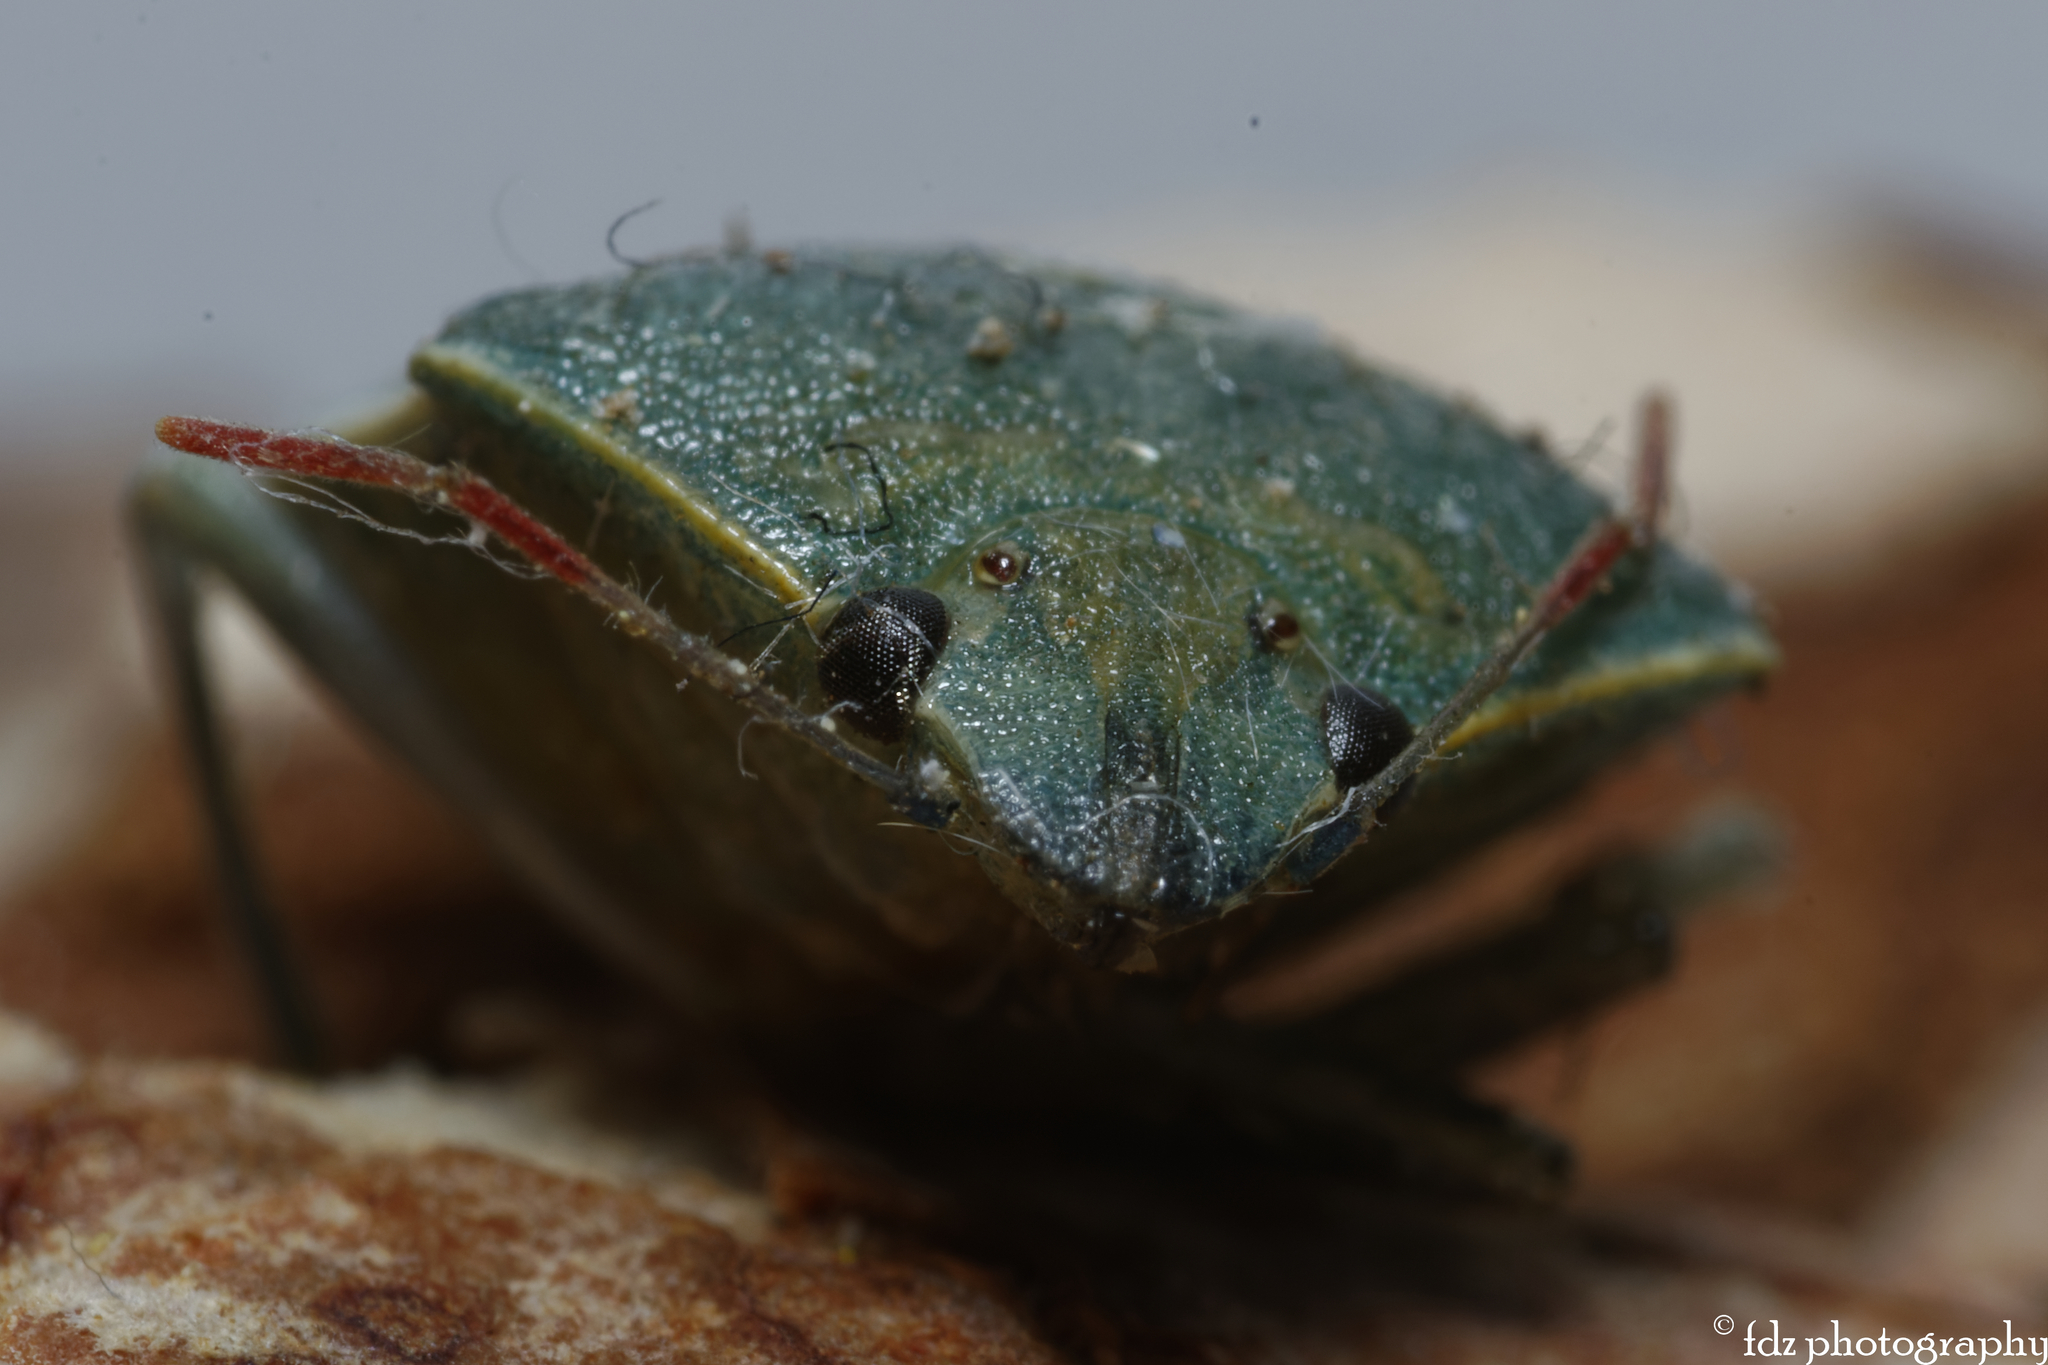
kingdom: Animalia
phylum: Arthropoda
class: Insecta
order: Hemiptera
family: Pentatomidae
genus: Acrosternum
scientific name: Acrosternum heegeri
